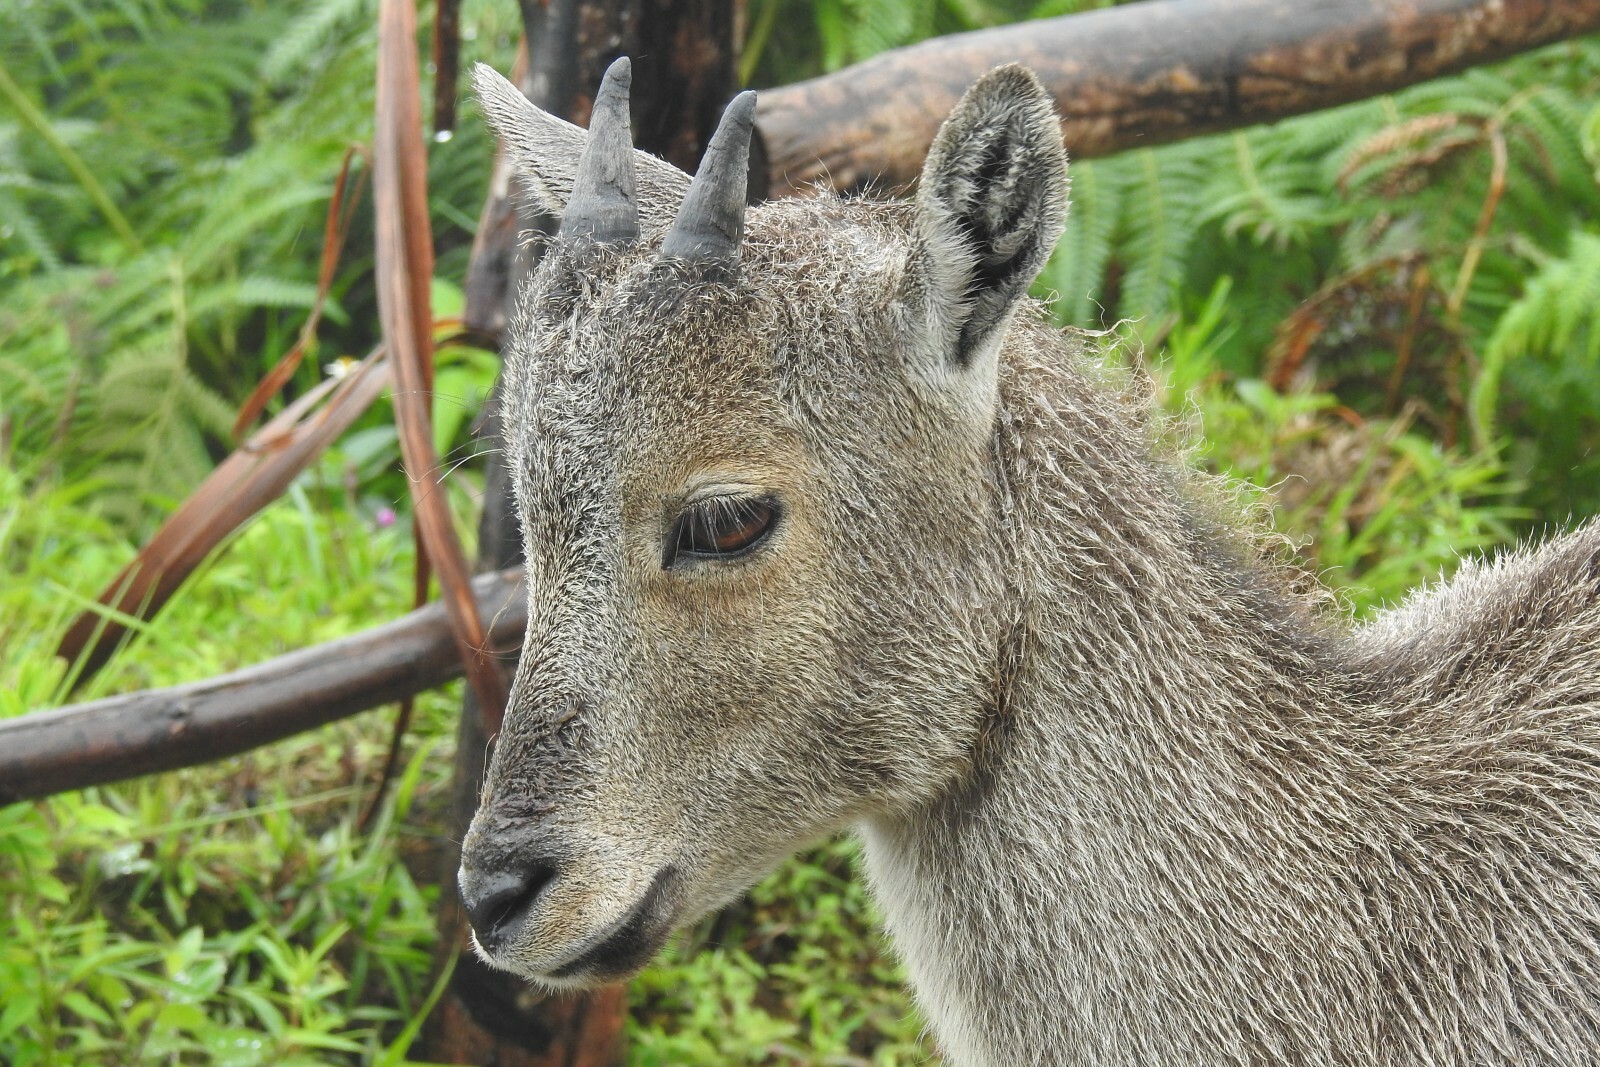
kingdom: Animalia
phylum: Chordata
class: Mammalia
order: Artiodactyla
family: Bovidae
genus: Hemitragus
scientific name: Hemitragus hylocrius
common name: Nilgiri tahr
